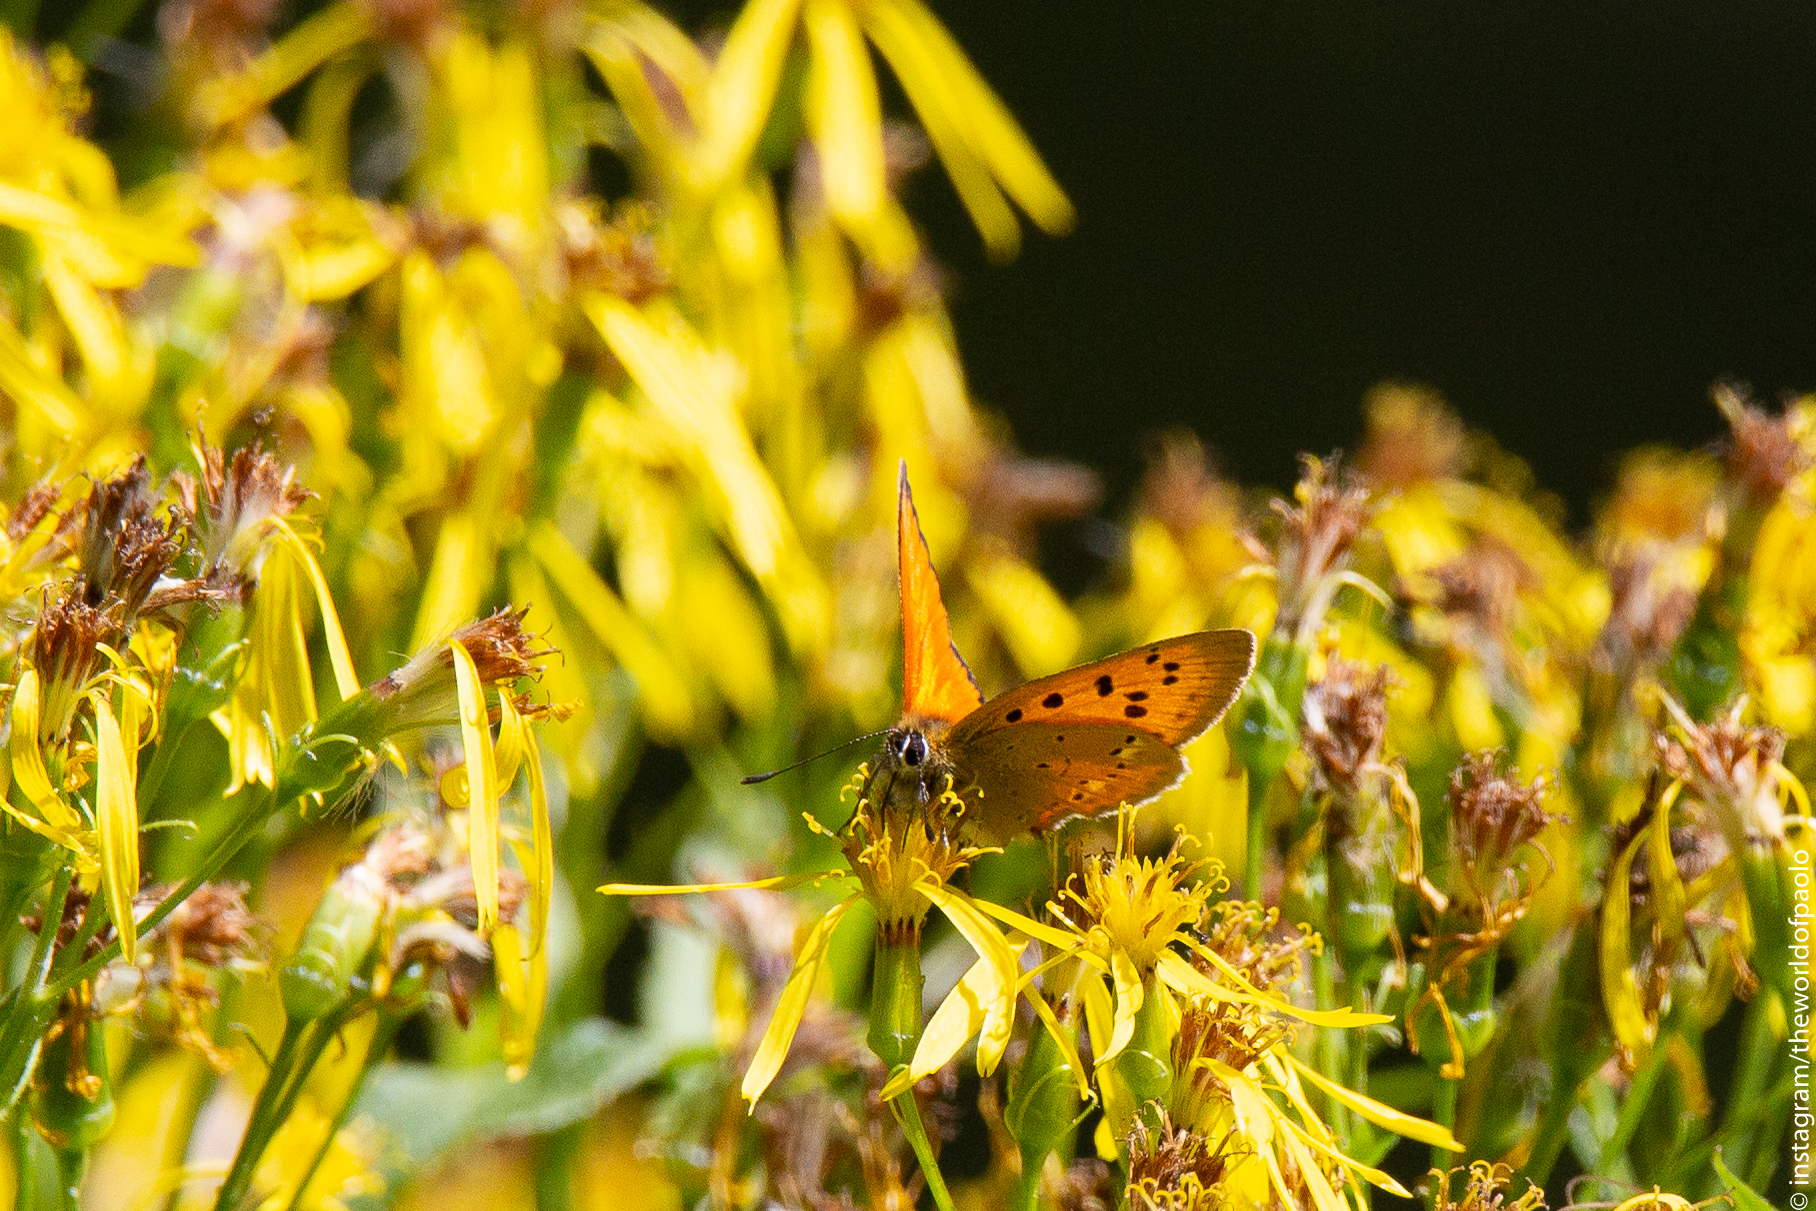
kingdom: Animalia
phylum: Arthropoda
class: Insecta
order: Lepidoptera
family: Lycaenidae
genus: Lycaena
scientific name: Lycaena virgaureae
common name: Scarce copper
